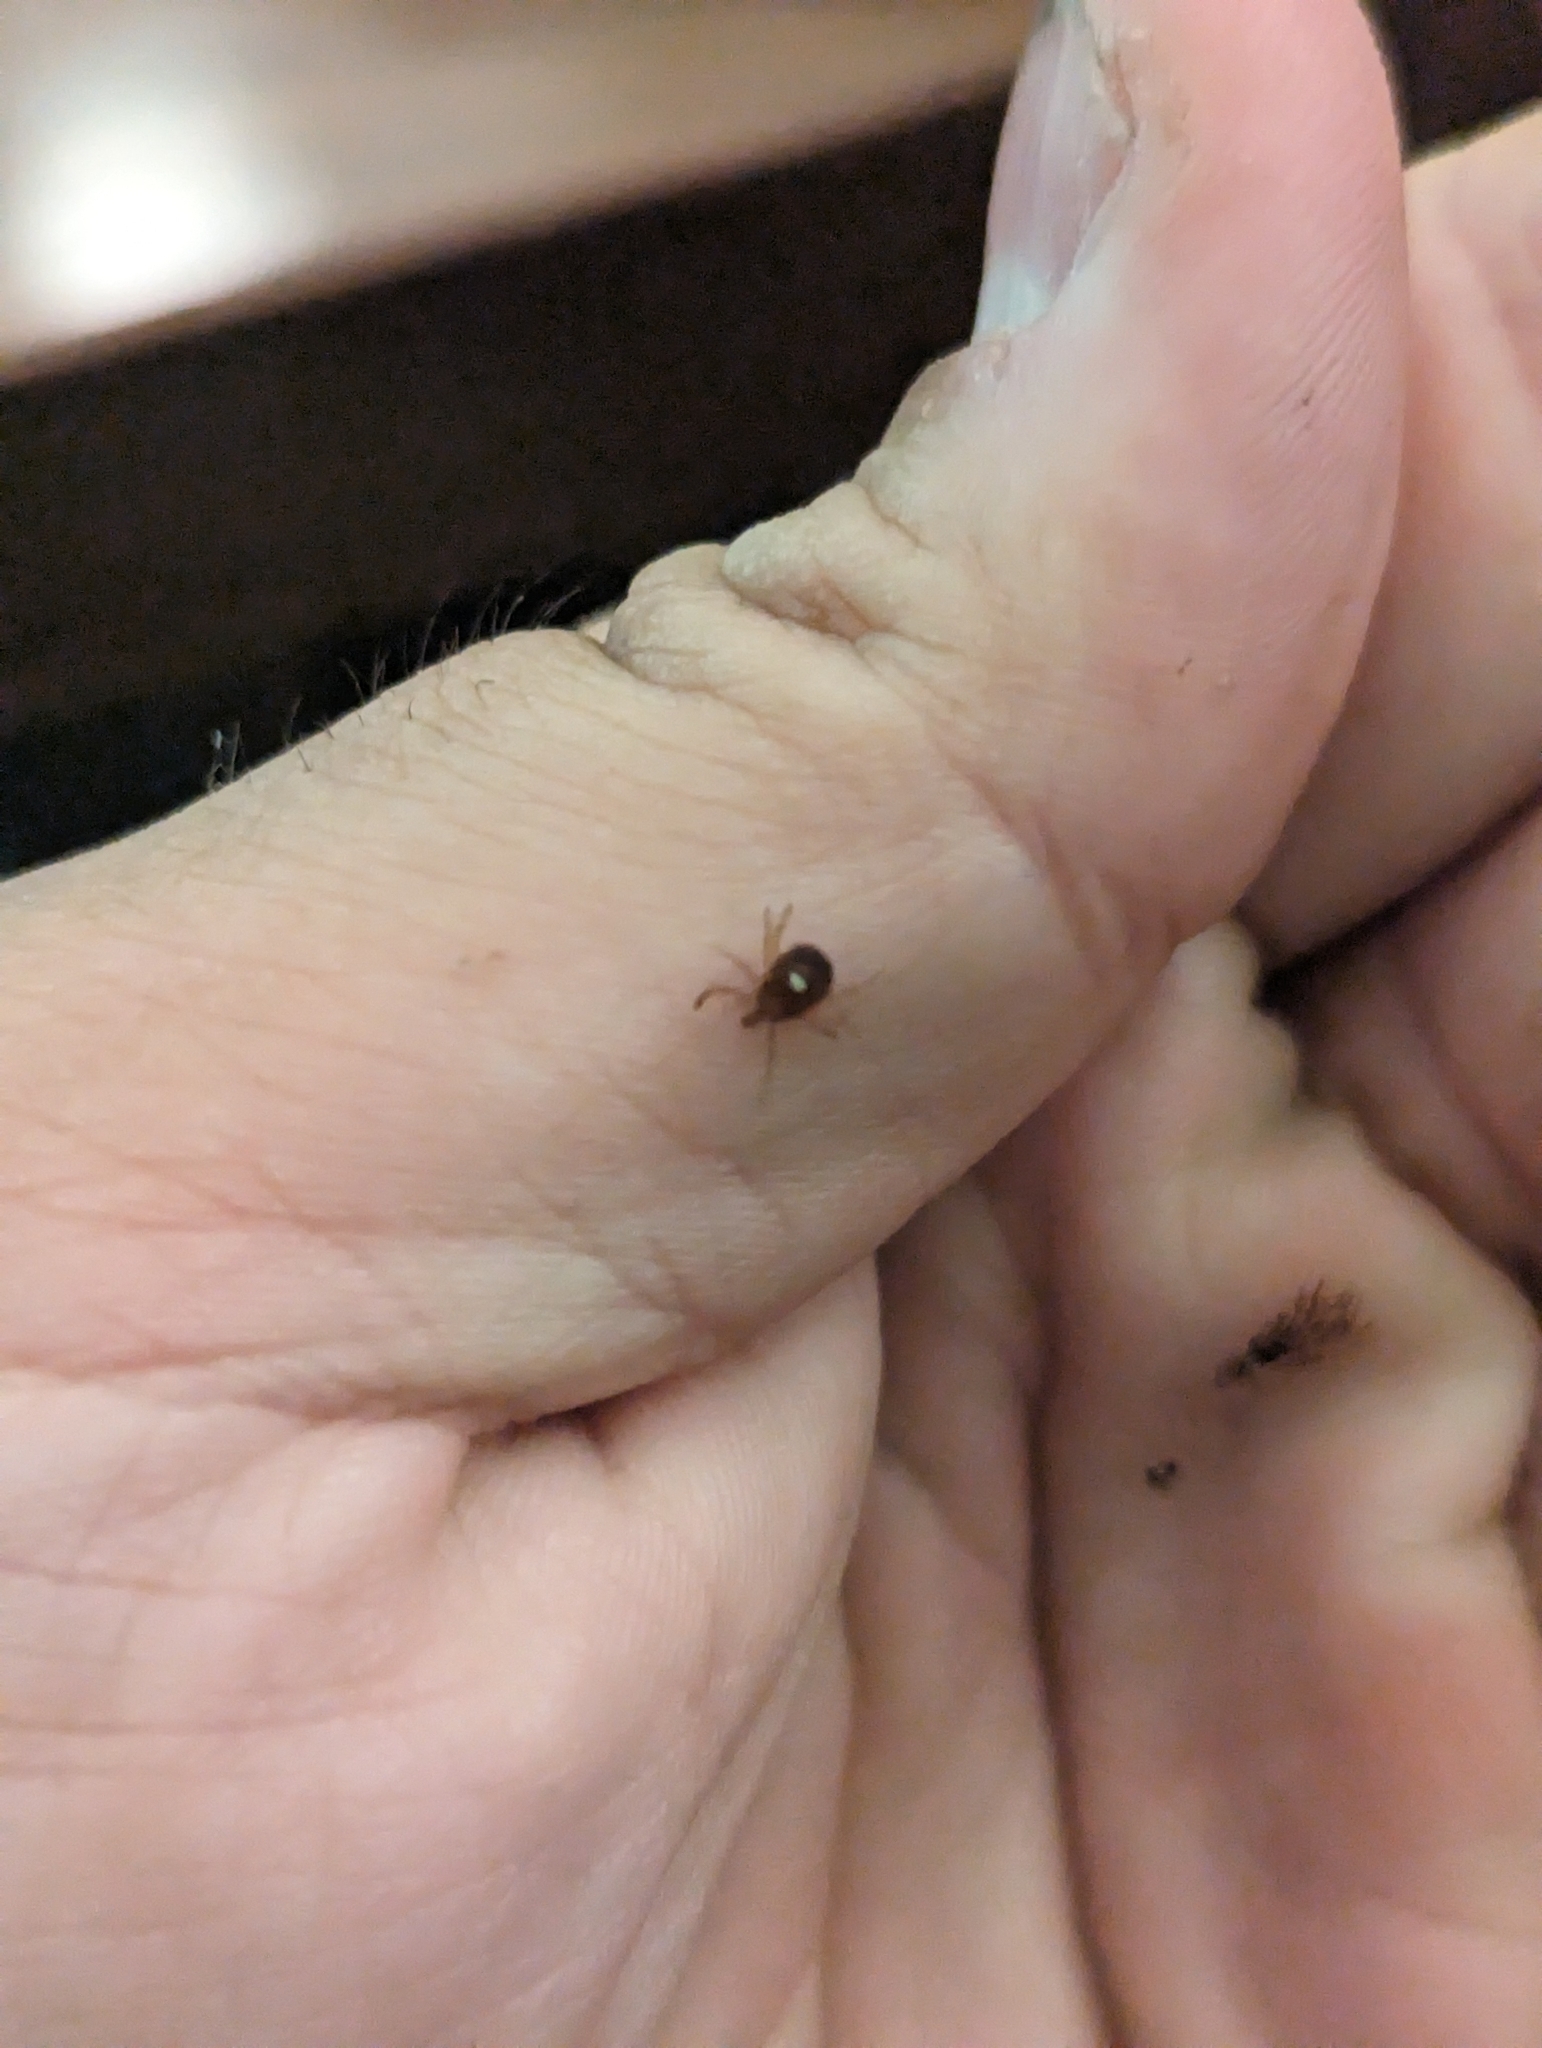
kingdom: Animalia
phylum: Arthropoda
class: Arachnida
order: Ixodida
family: Ixodidae
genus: Amblyomma
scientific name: Amblyomma americanum
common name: Lone star tick
